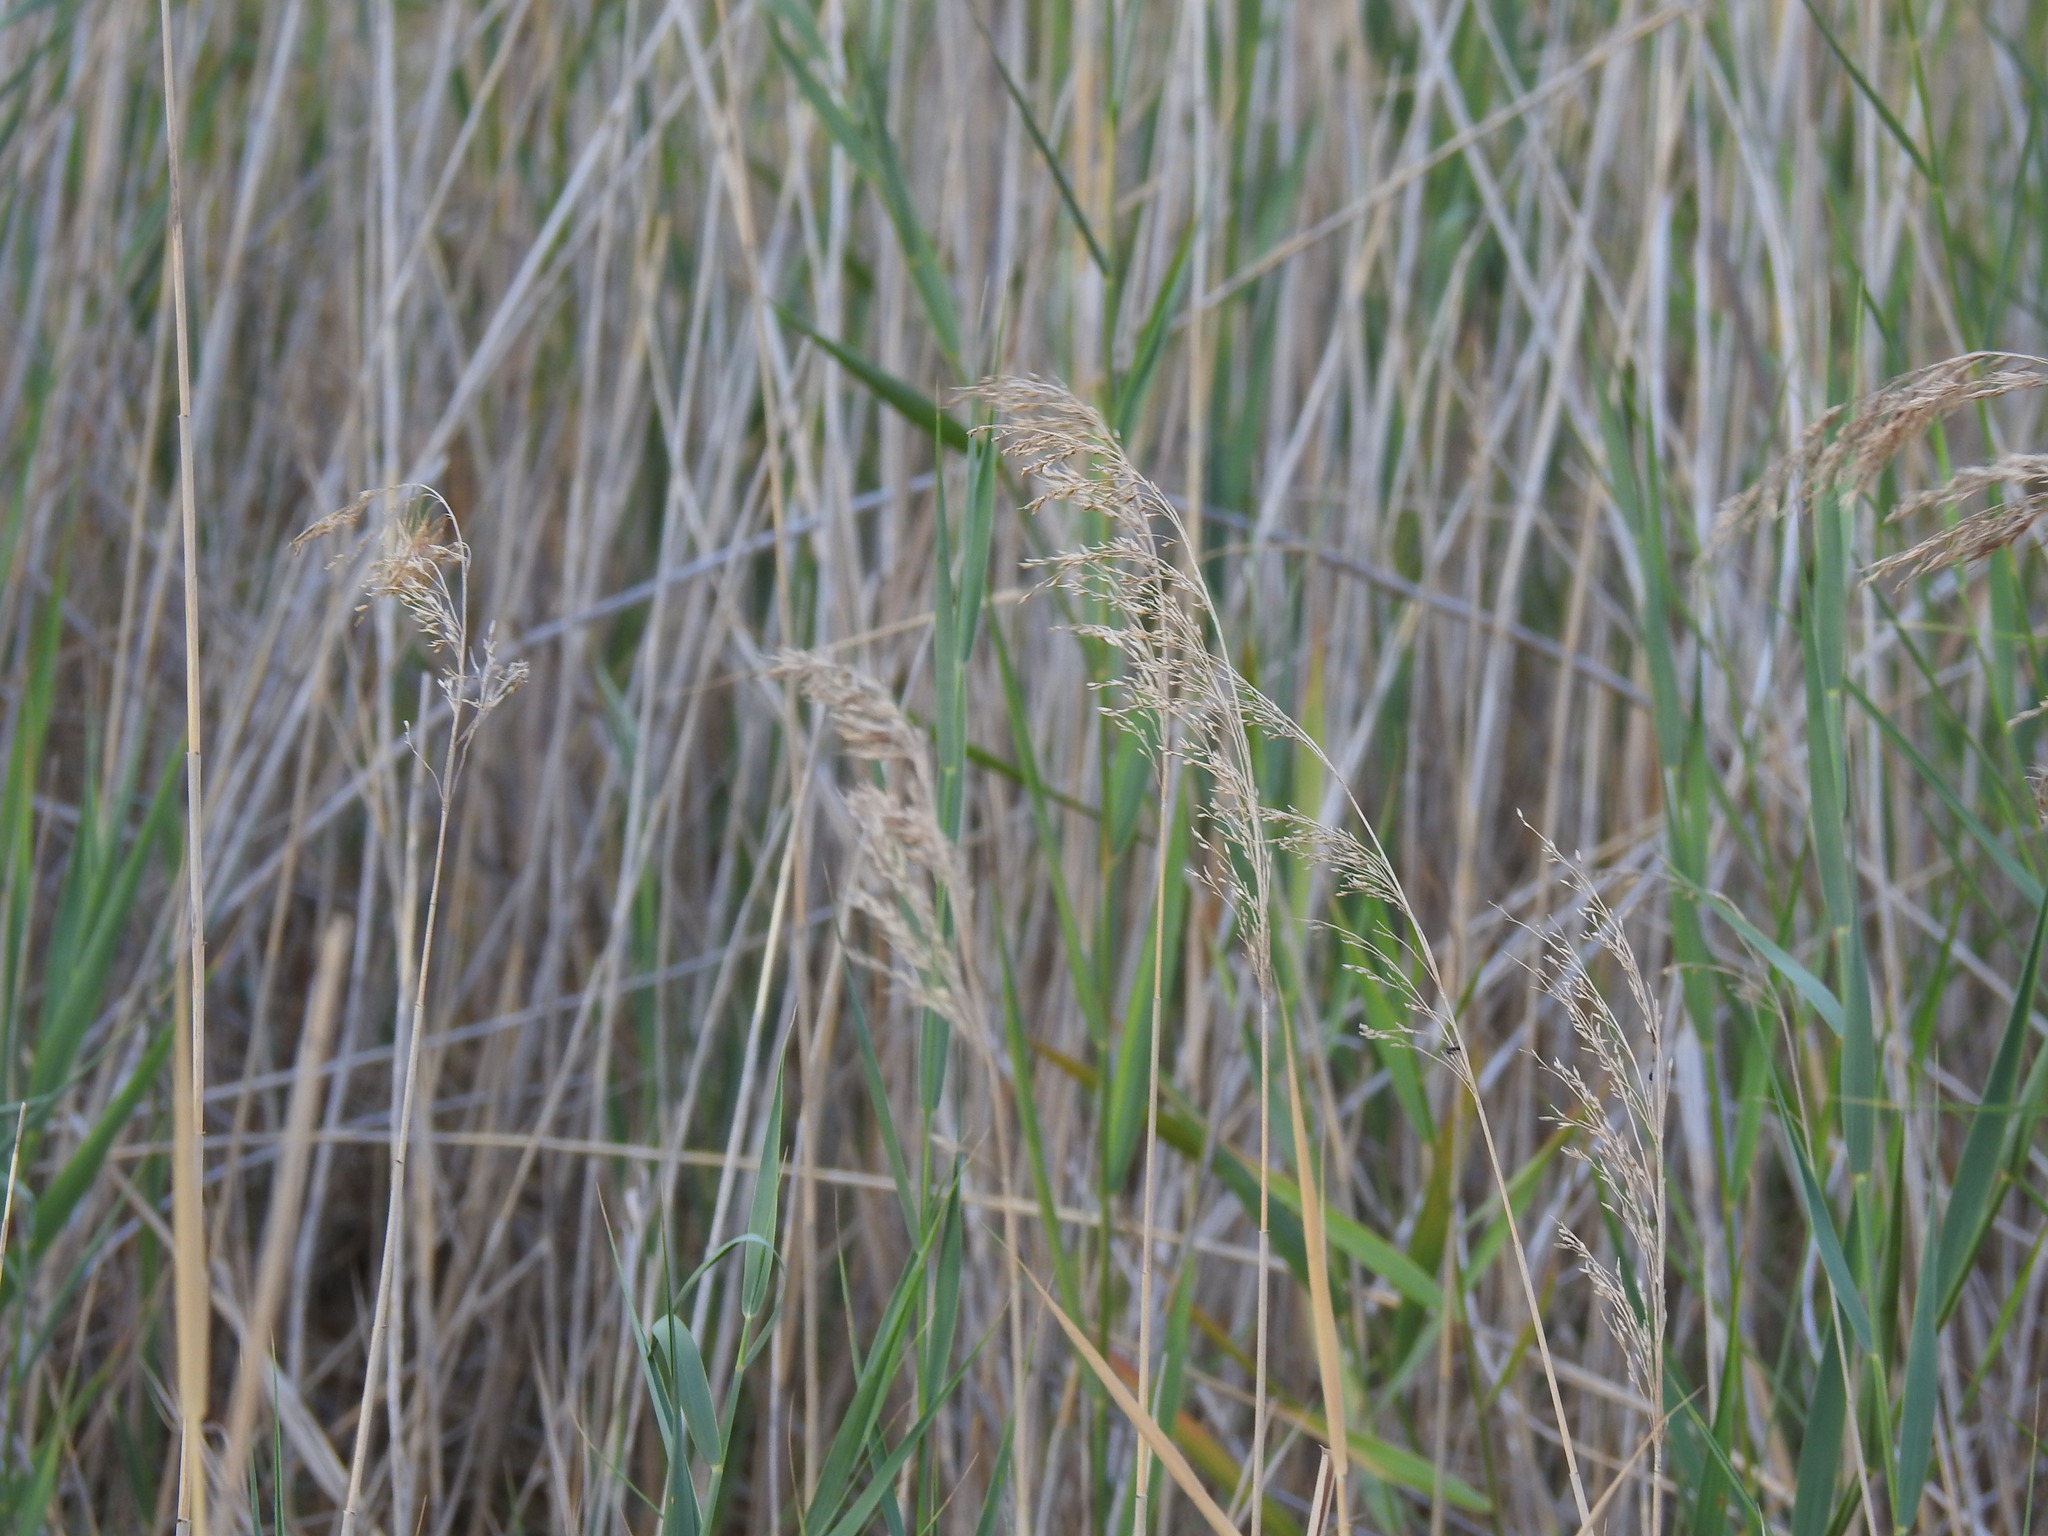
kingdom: Plantae
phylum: Tracheophyta
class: Liliopsida
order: Poales
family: Poaceae
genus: Phragmites
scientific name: Phragmites australis
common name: Common reed
